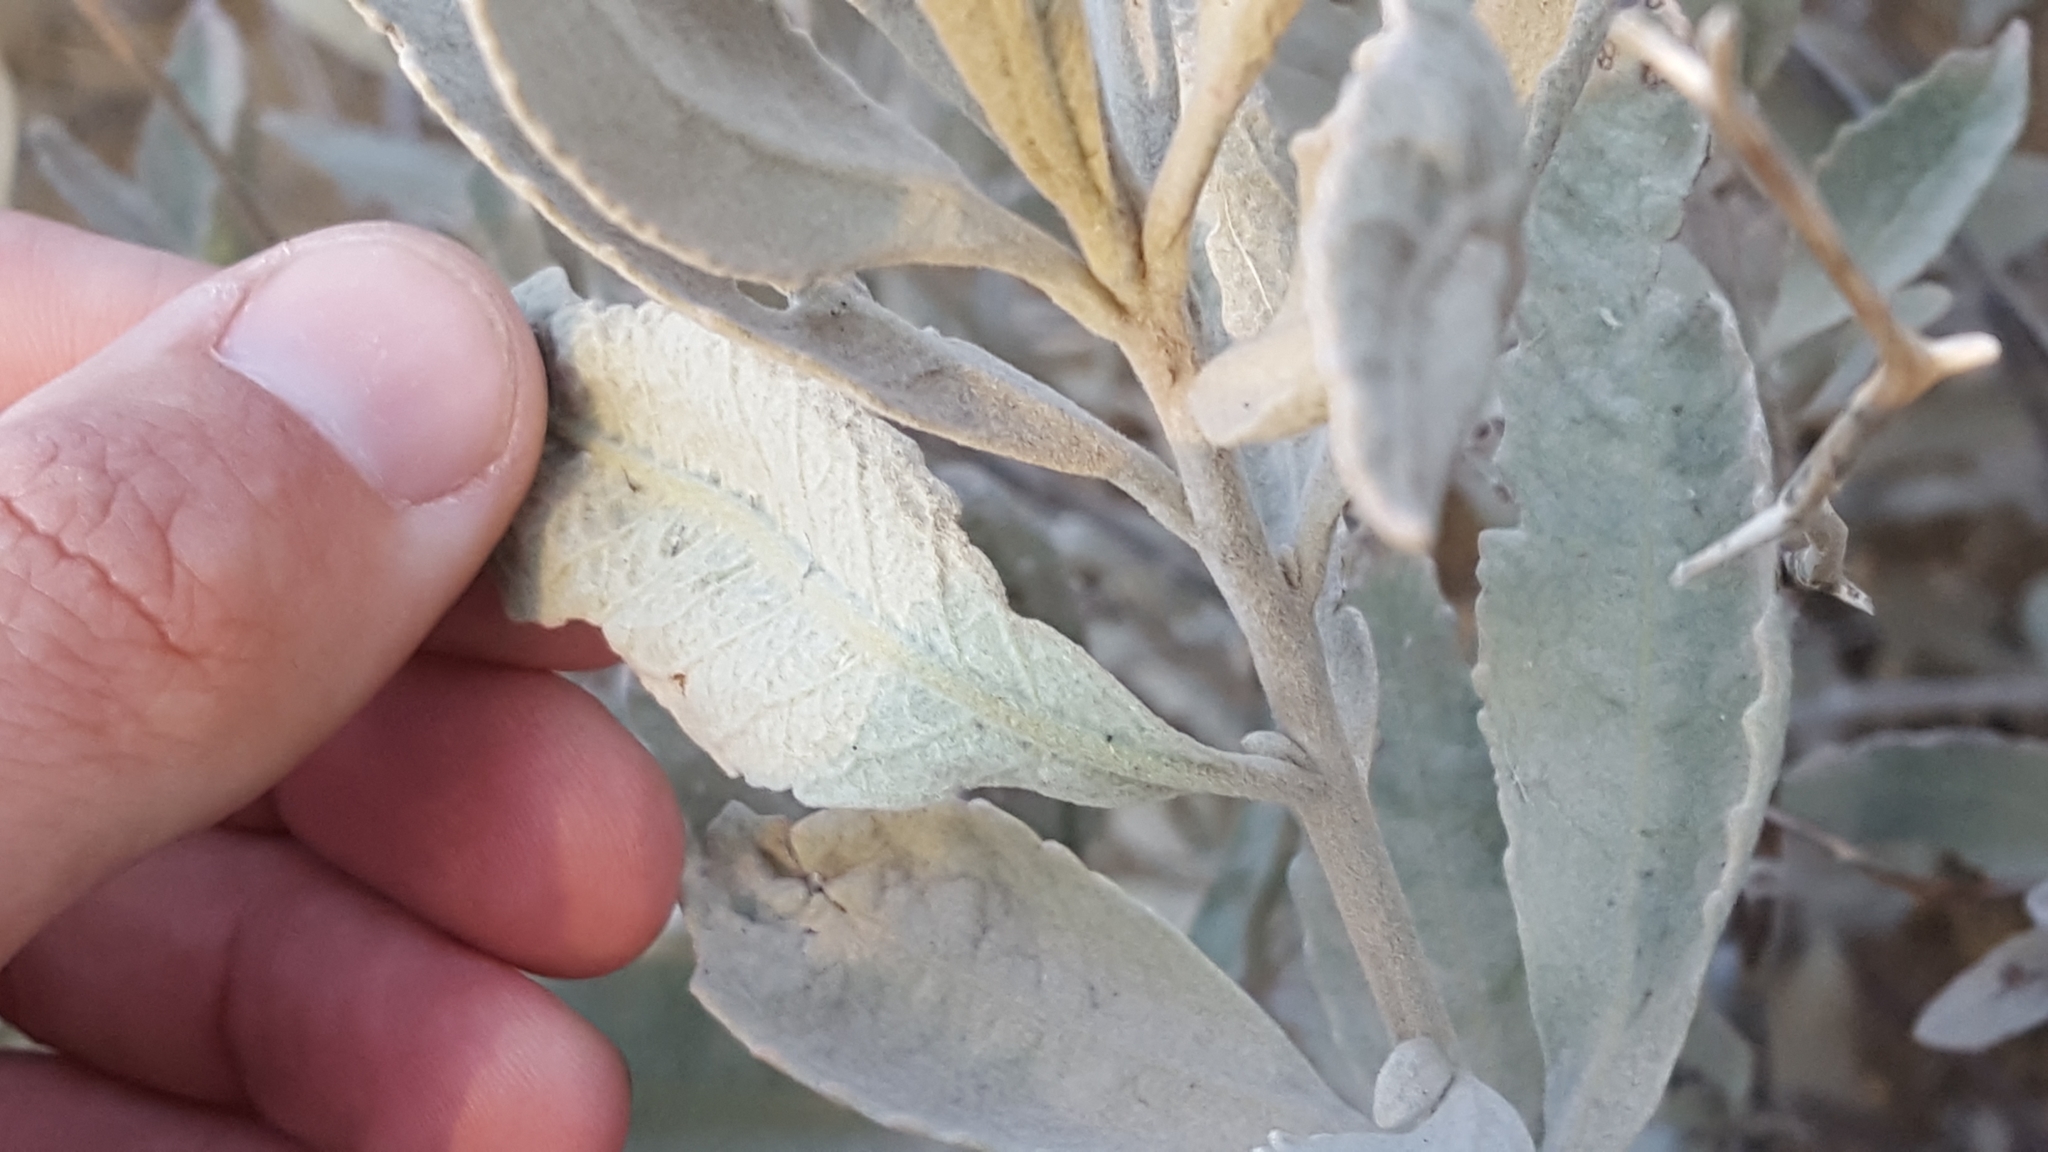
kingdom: Plantae
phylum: Tracheophyta
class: Magnoliopsida
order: Boraginales
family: Namaceae
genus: Eriodictyon
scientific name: Eriodictyon tomentosum
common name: Woolly yerba-santa
